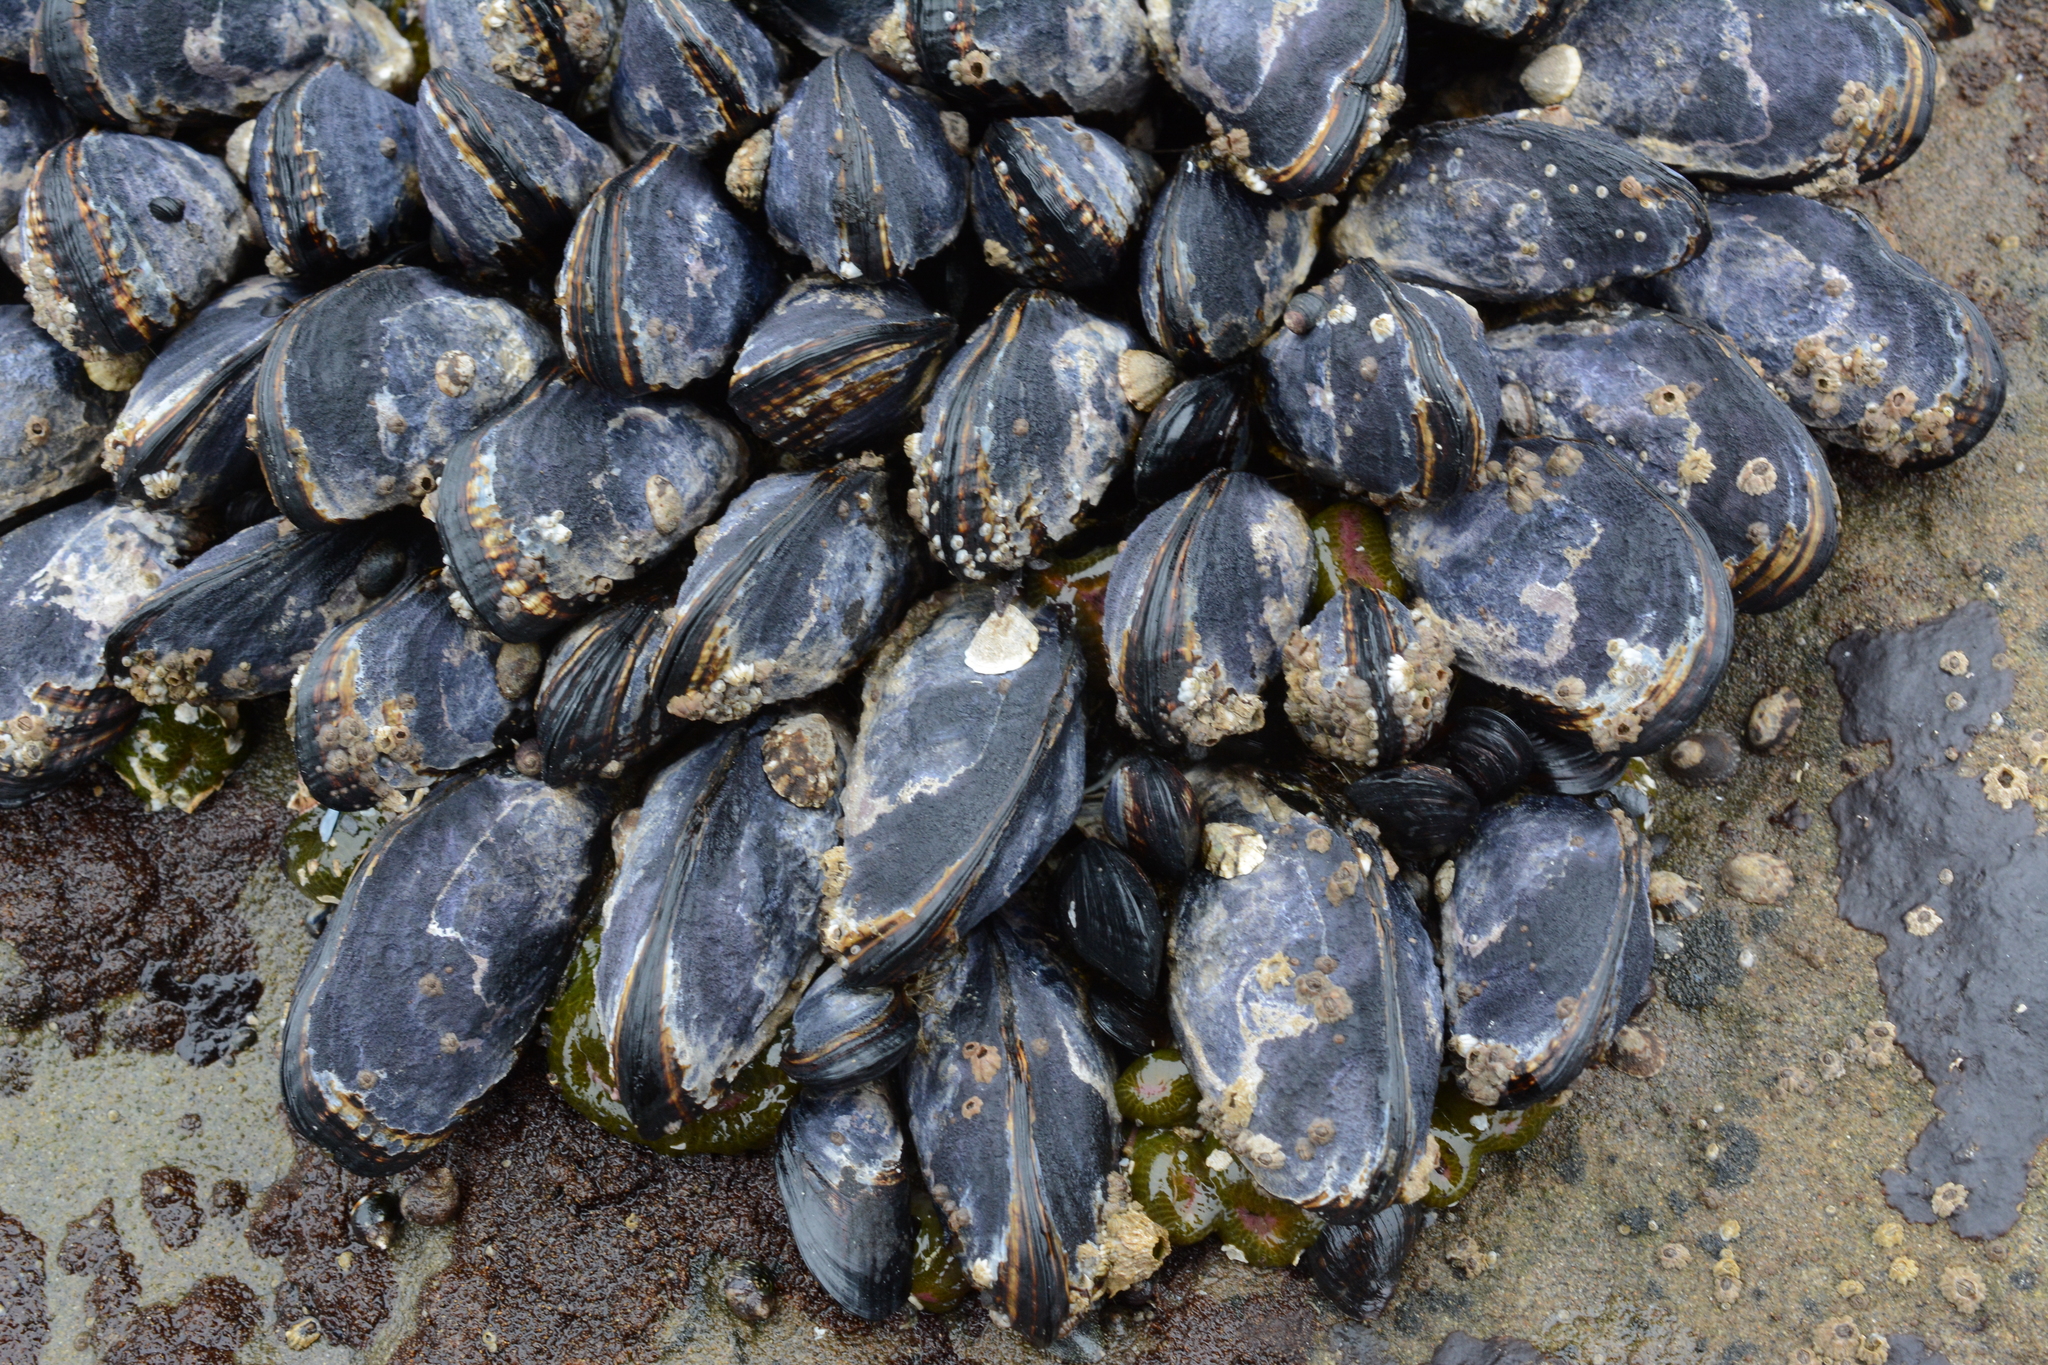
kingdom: Animalia
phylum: Mollusca
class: Bivalvia
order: Mytilida
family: Mytilidae
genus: Mytilus
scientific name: Mytilus californianus
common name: California mussel
